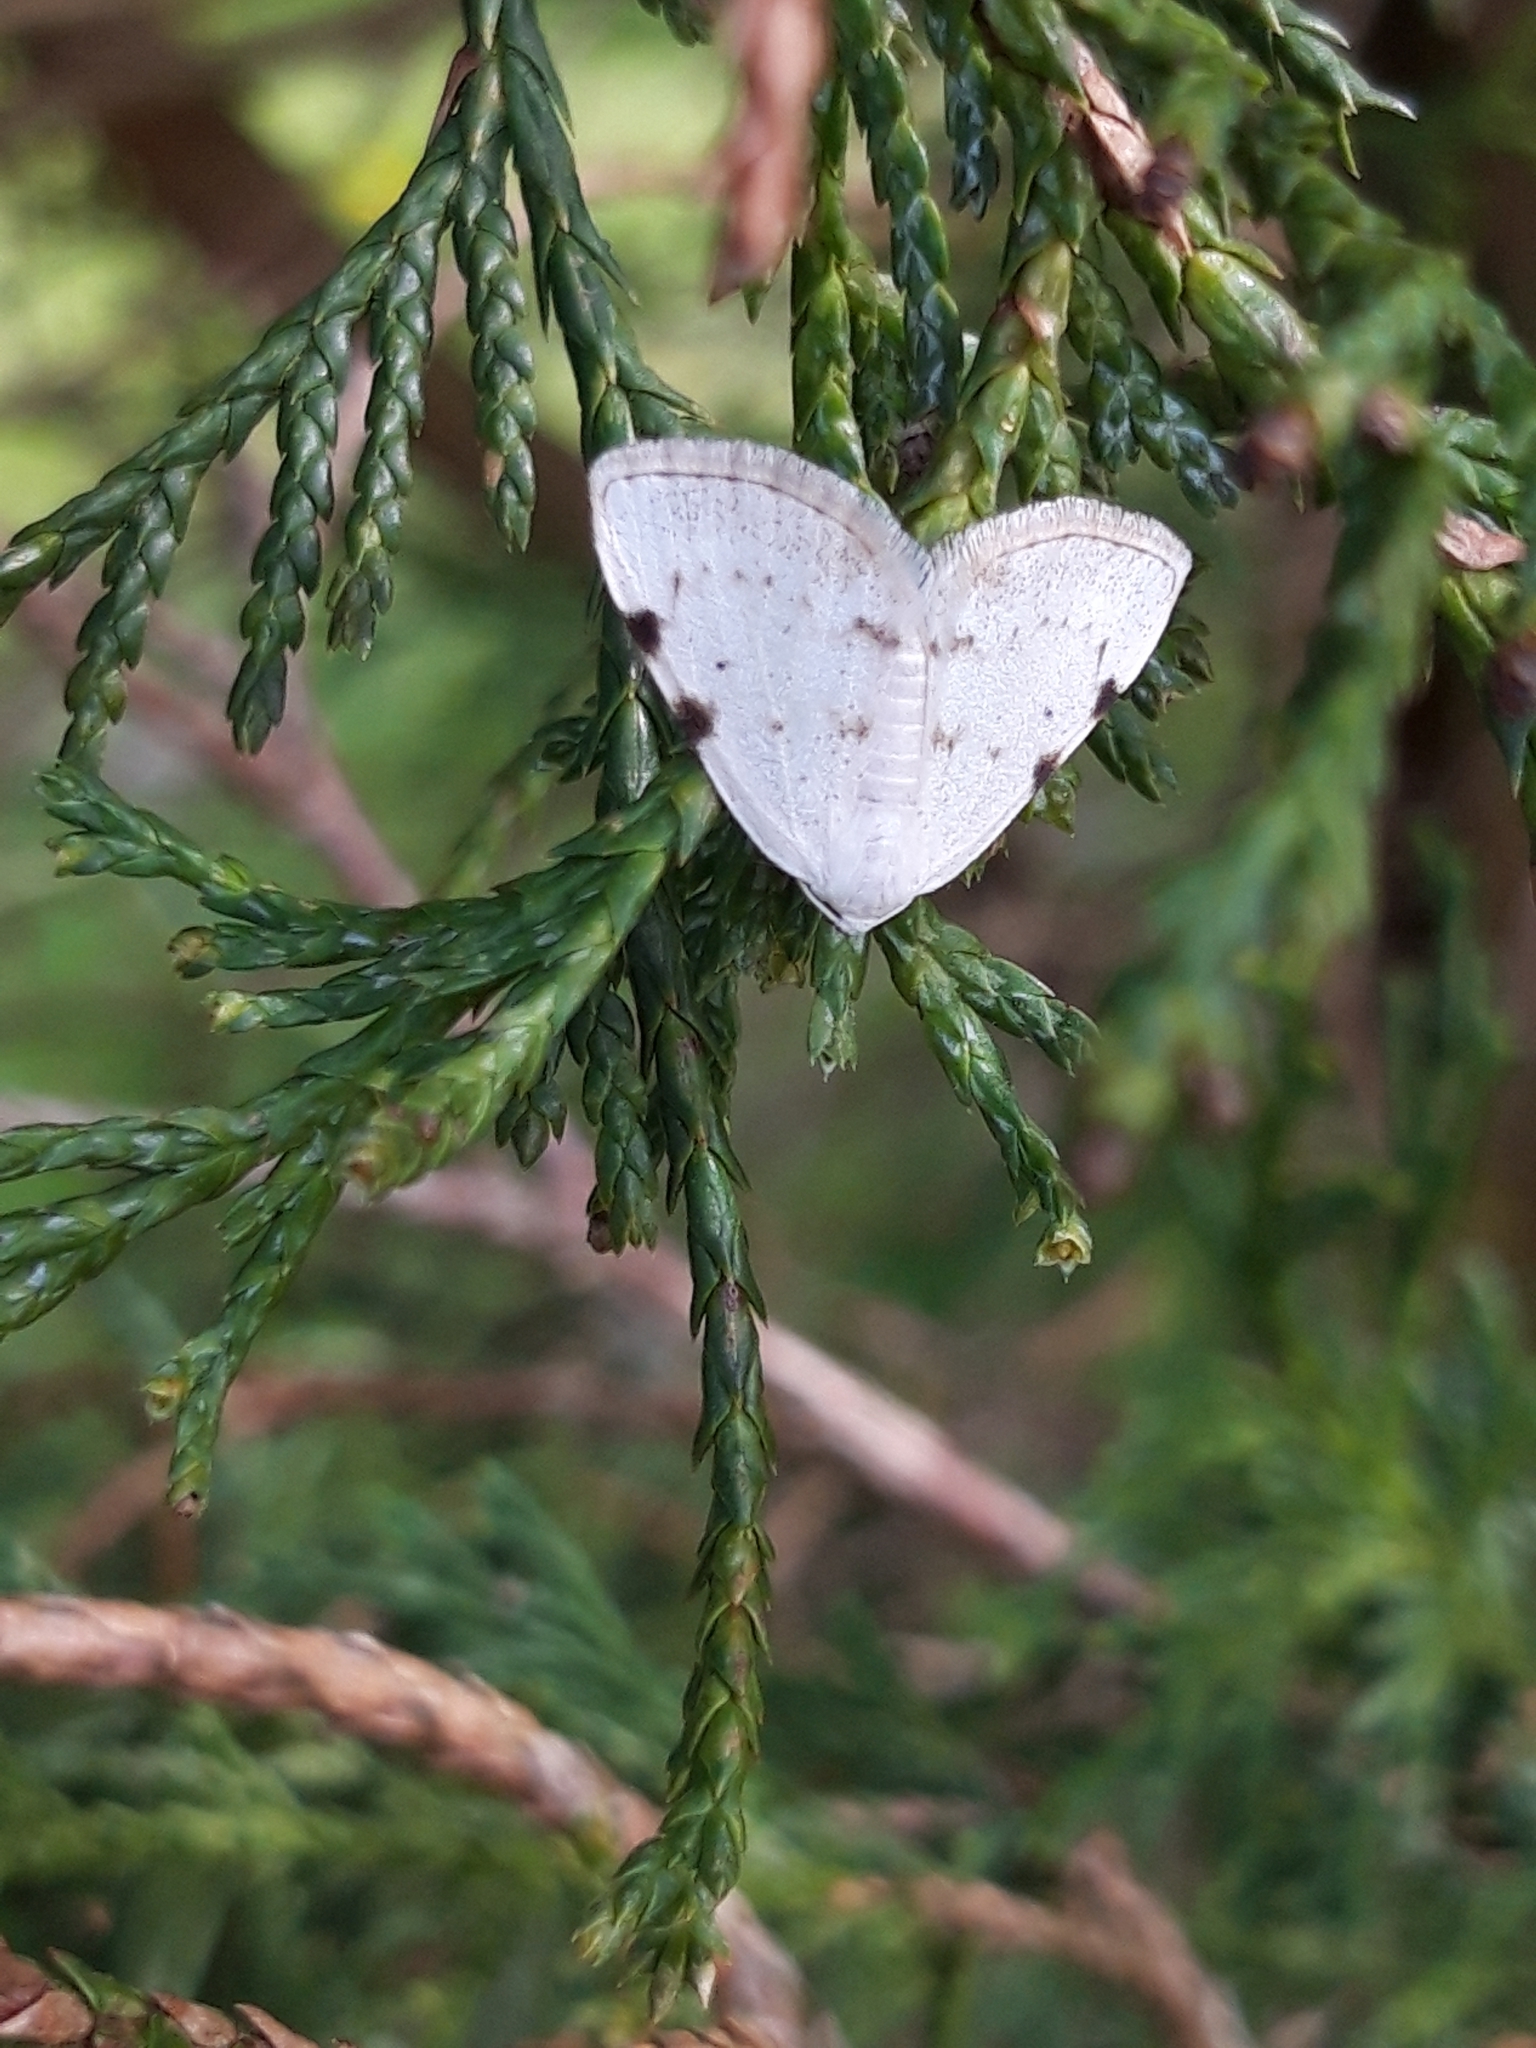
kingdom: Animalia
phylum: Arthropoda
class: Insecta
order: Lepidoptera
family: Geometridae
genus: Lomographa
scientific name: Lomographa bimaculata
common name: White-pinion spotted
